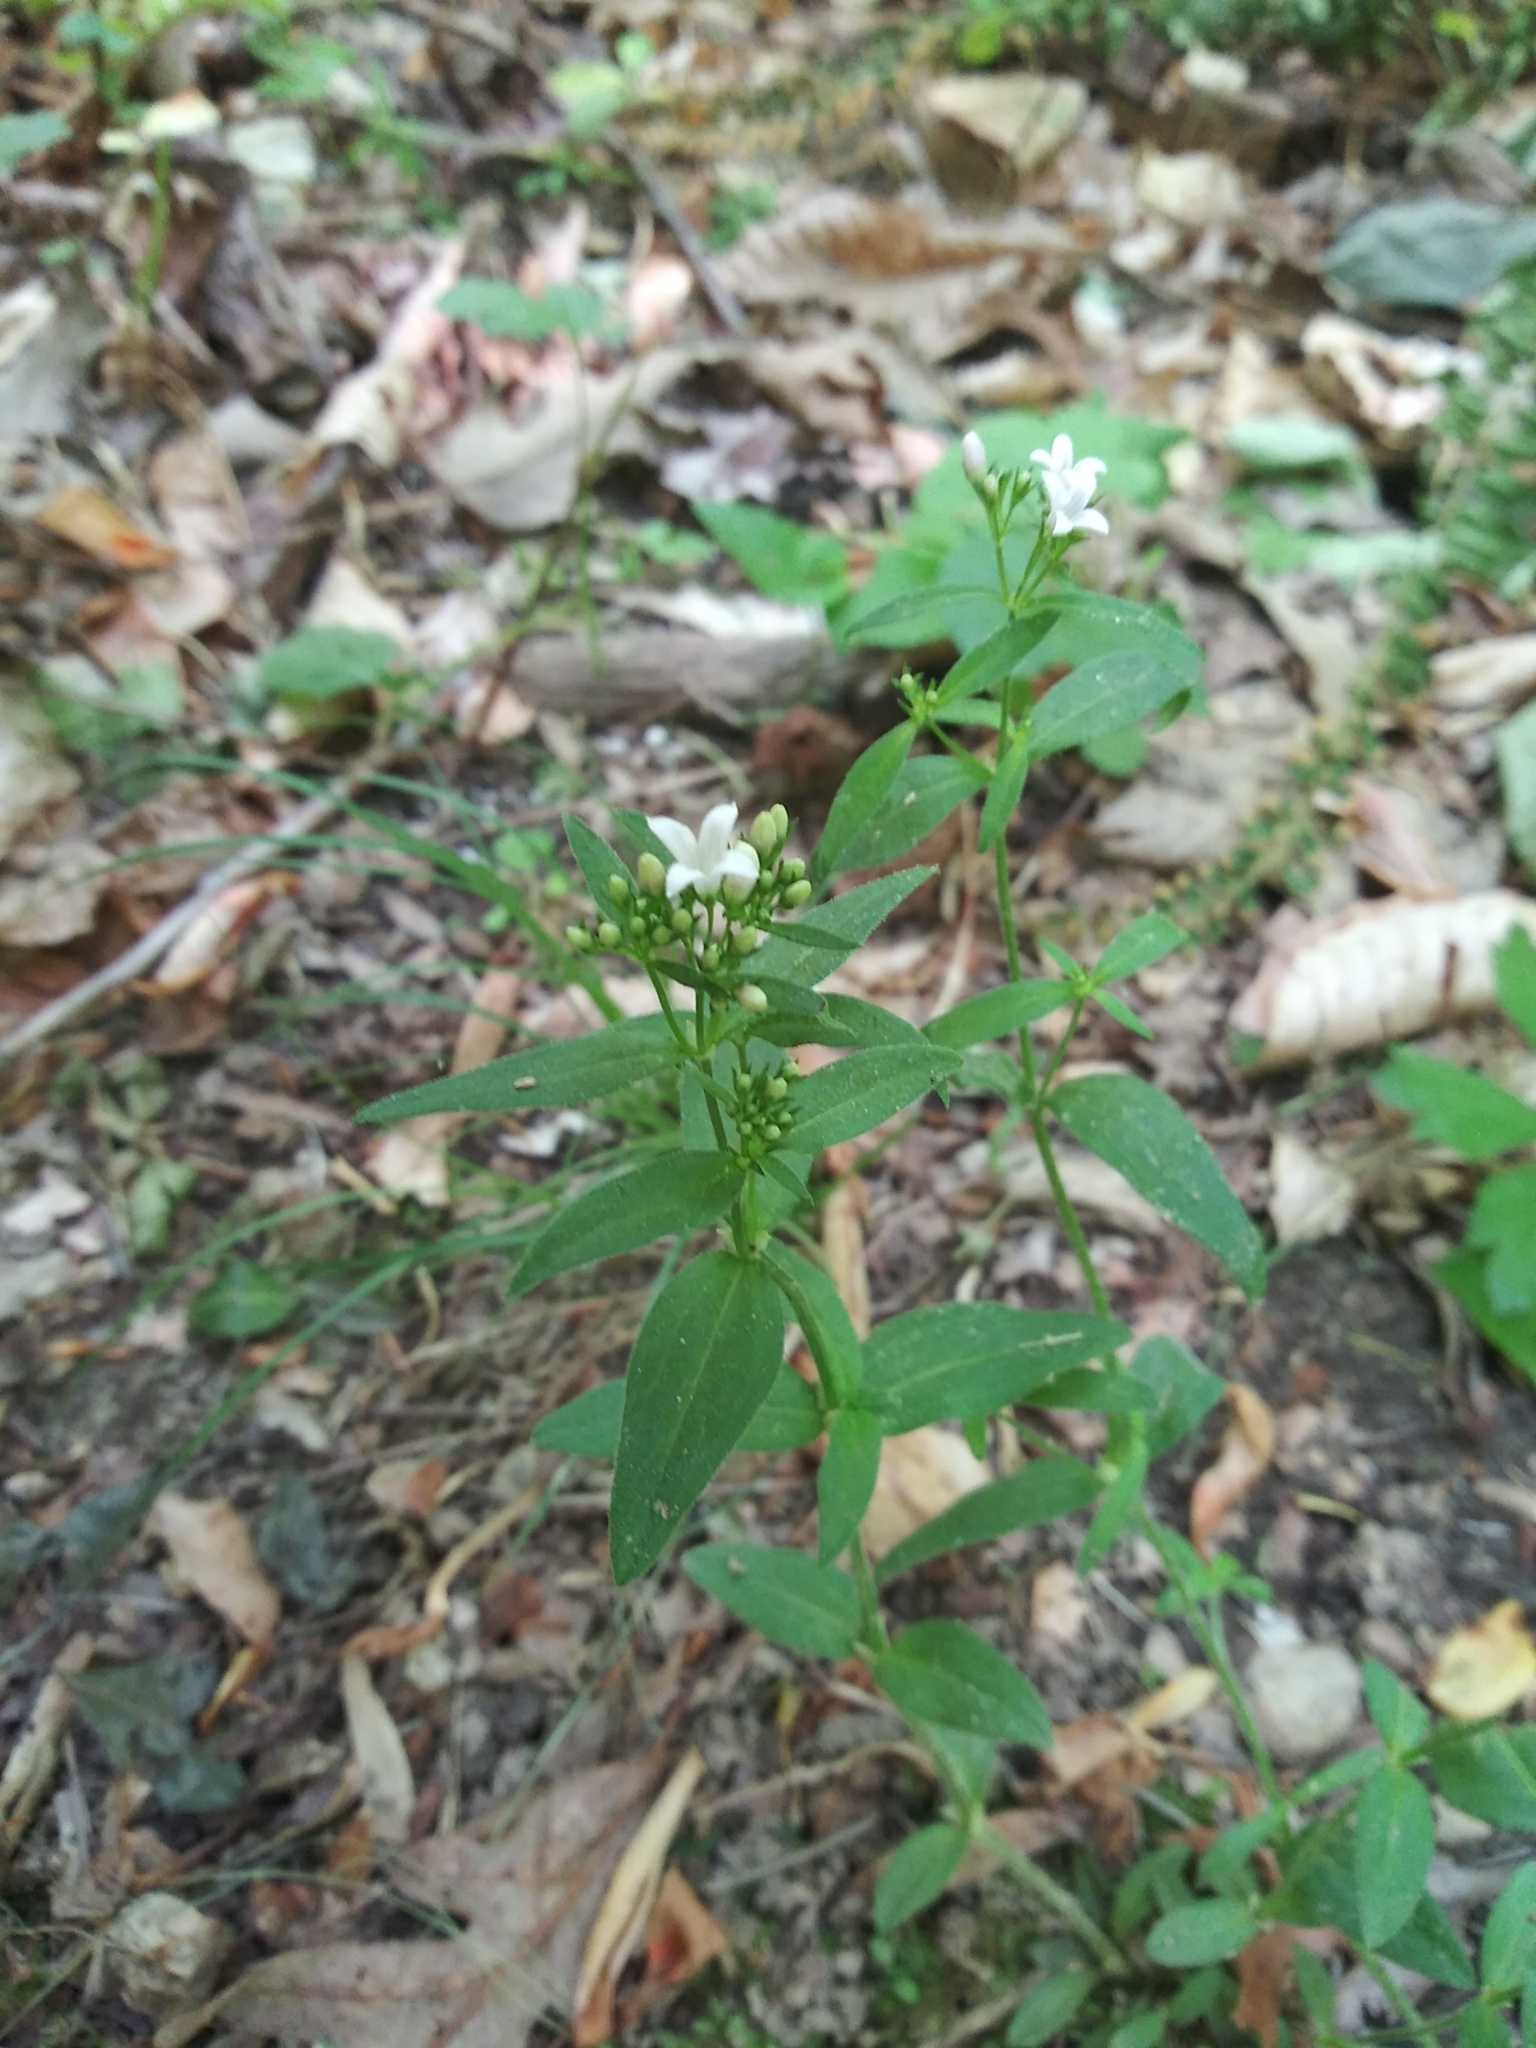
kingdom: Plantae
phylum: Tracheophyta
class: Magnoliopsida
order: Gentianales
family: Rubiaceae
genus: Houstonia
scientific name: Houstonia purpurea
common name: Summer bluet
